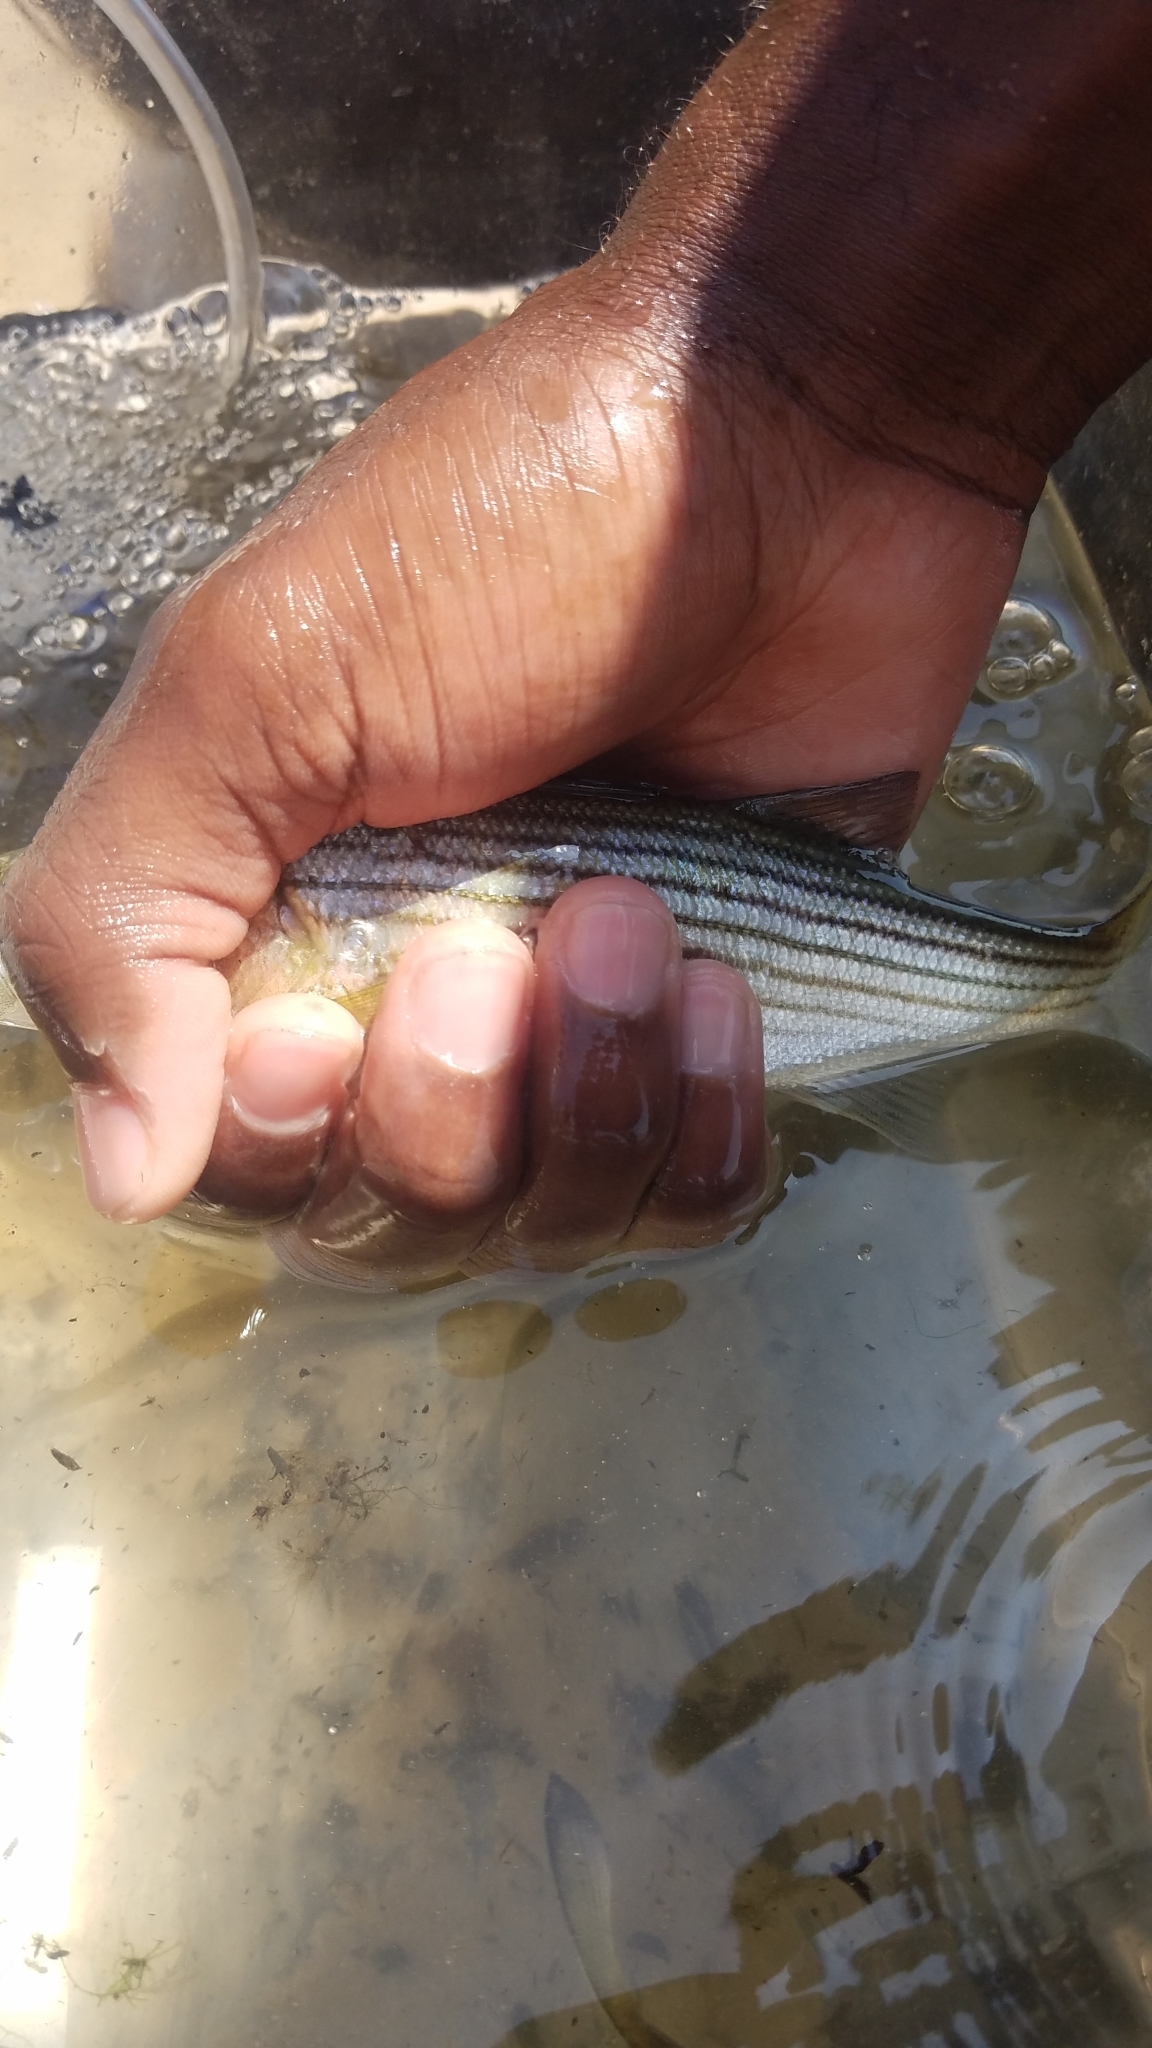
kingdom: Animalia
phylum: Chordata
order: Perciformes
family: Moronidae
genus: Morone
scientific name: Morone saxatilis
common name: Striped bass
